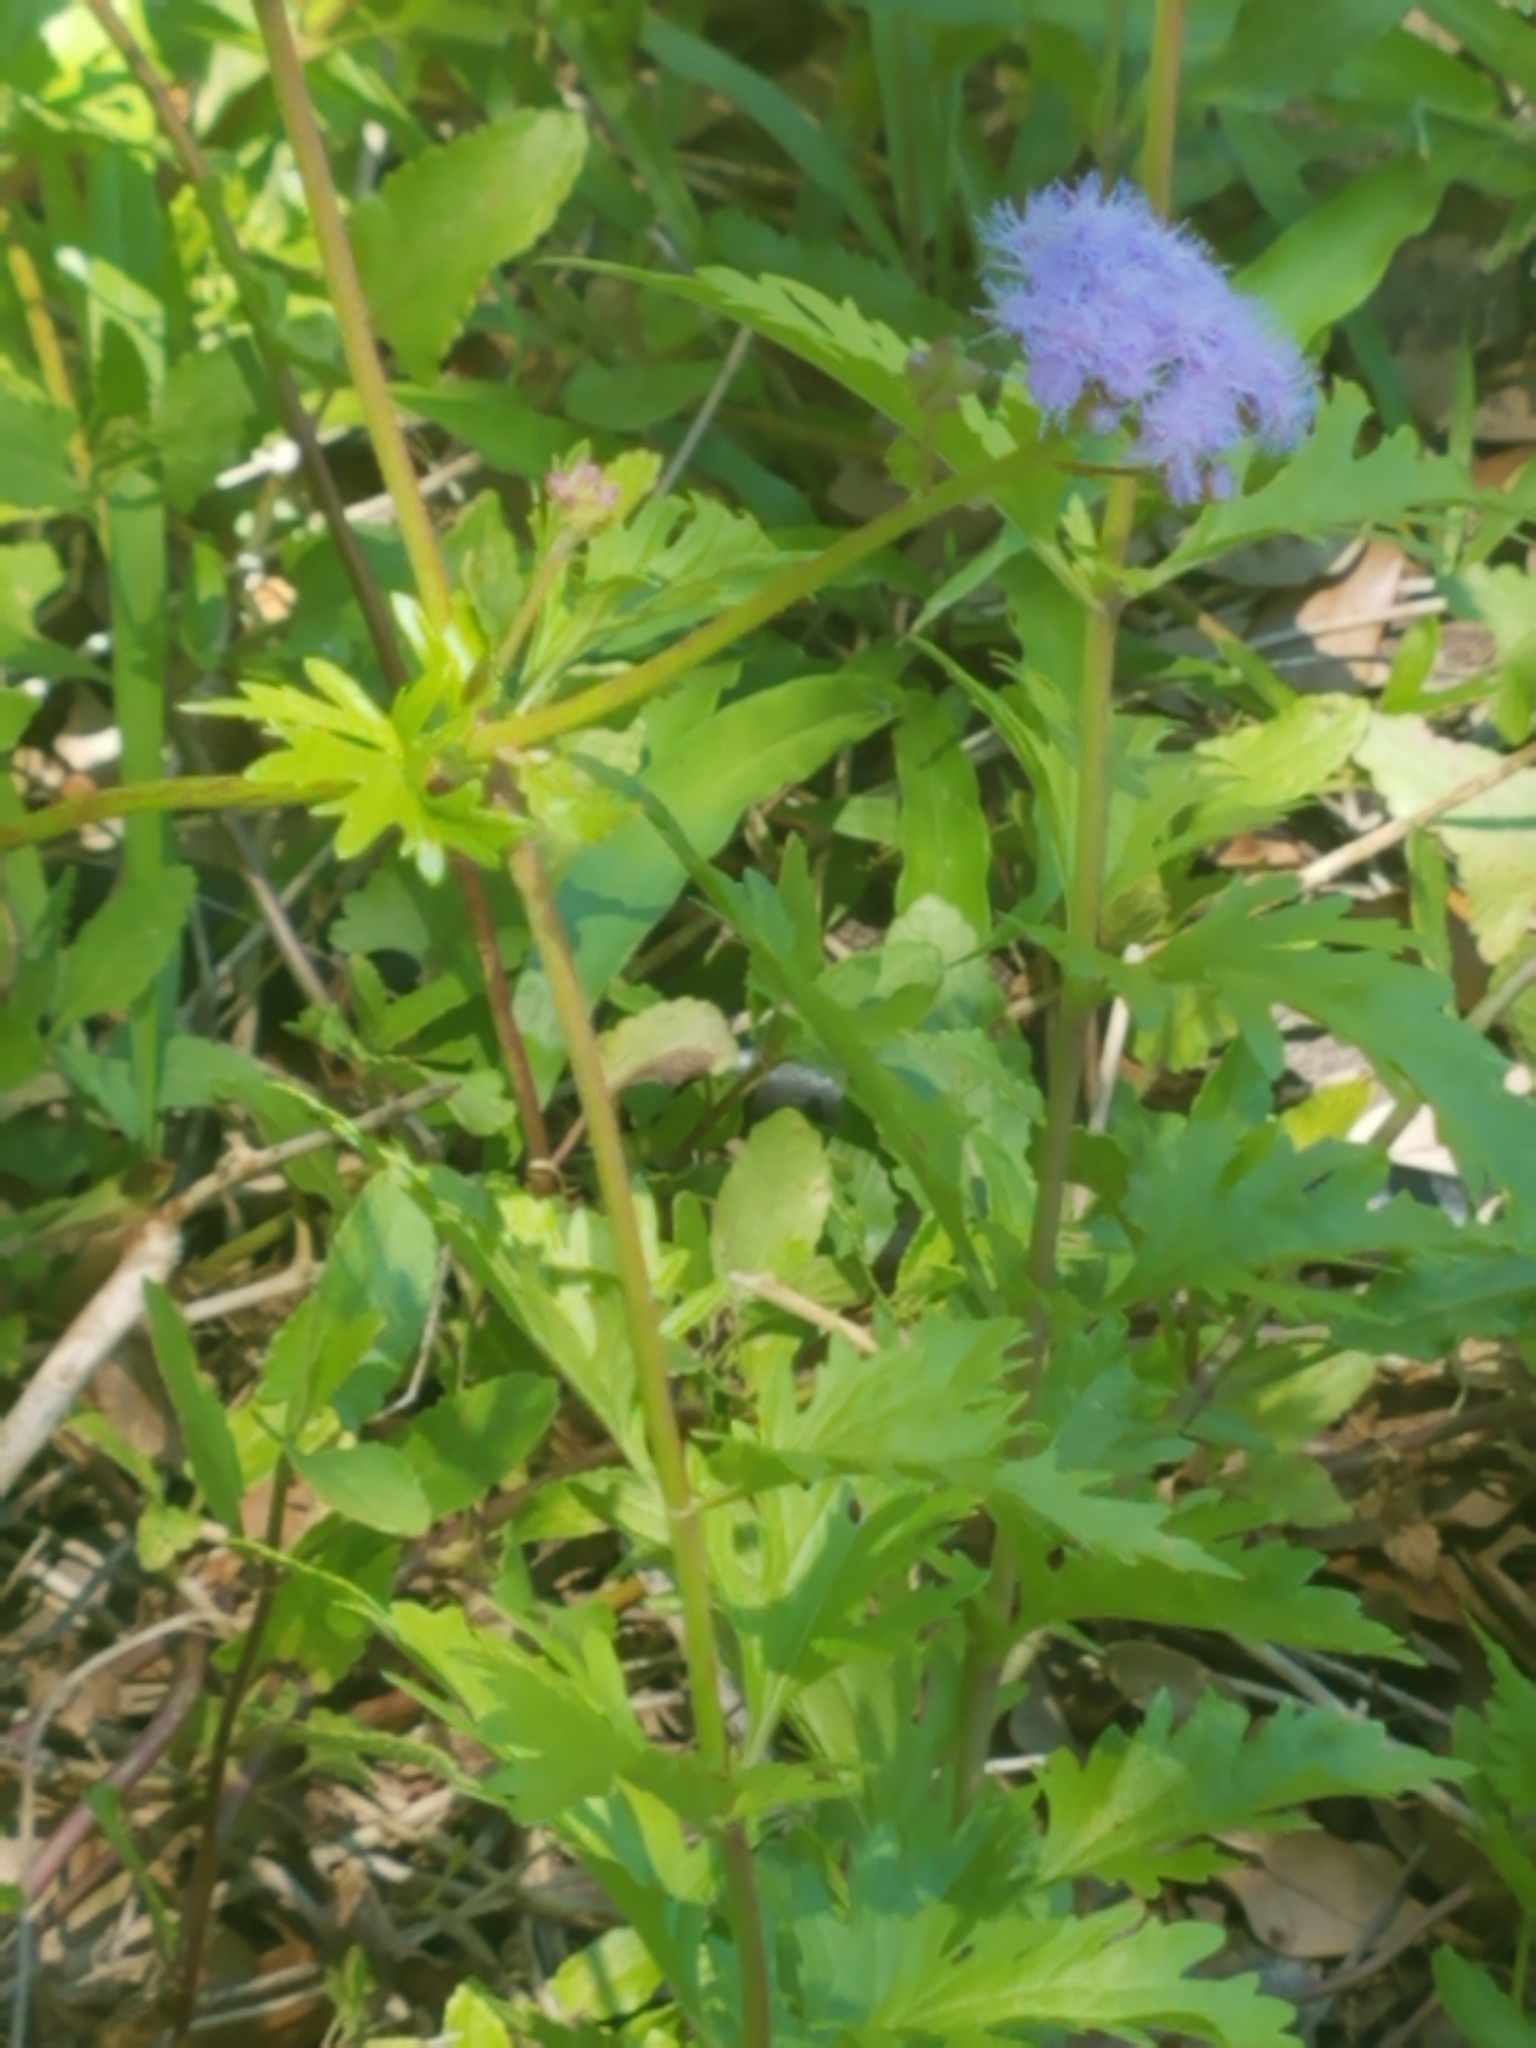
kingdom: Plantae
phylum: Tracheophyta
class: Magnoliopsida
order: Asterales
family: Asteraceae
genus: Conoclinium
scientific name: Conoclinium dissectum
